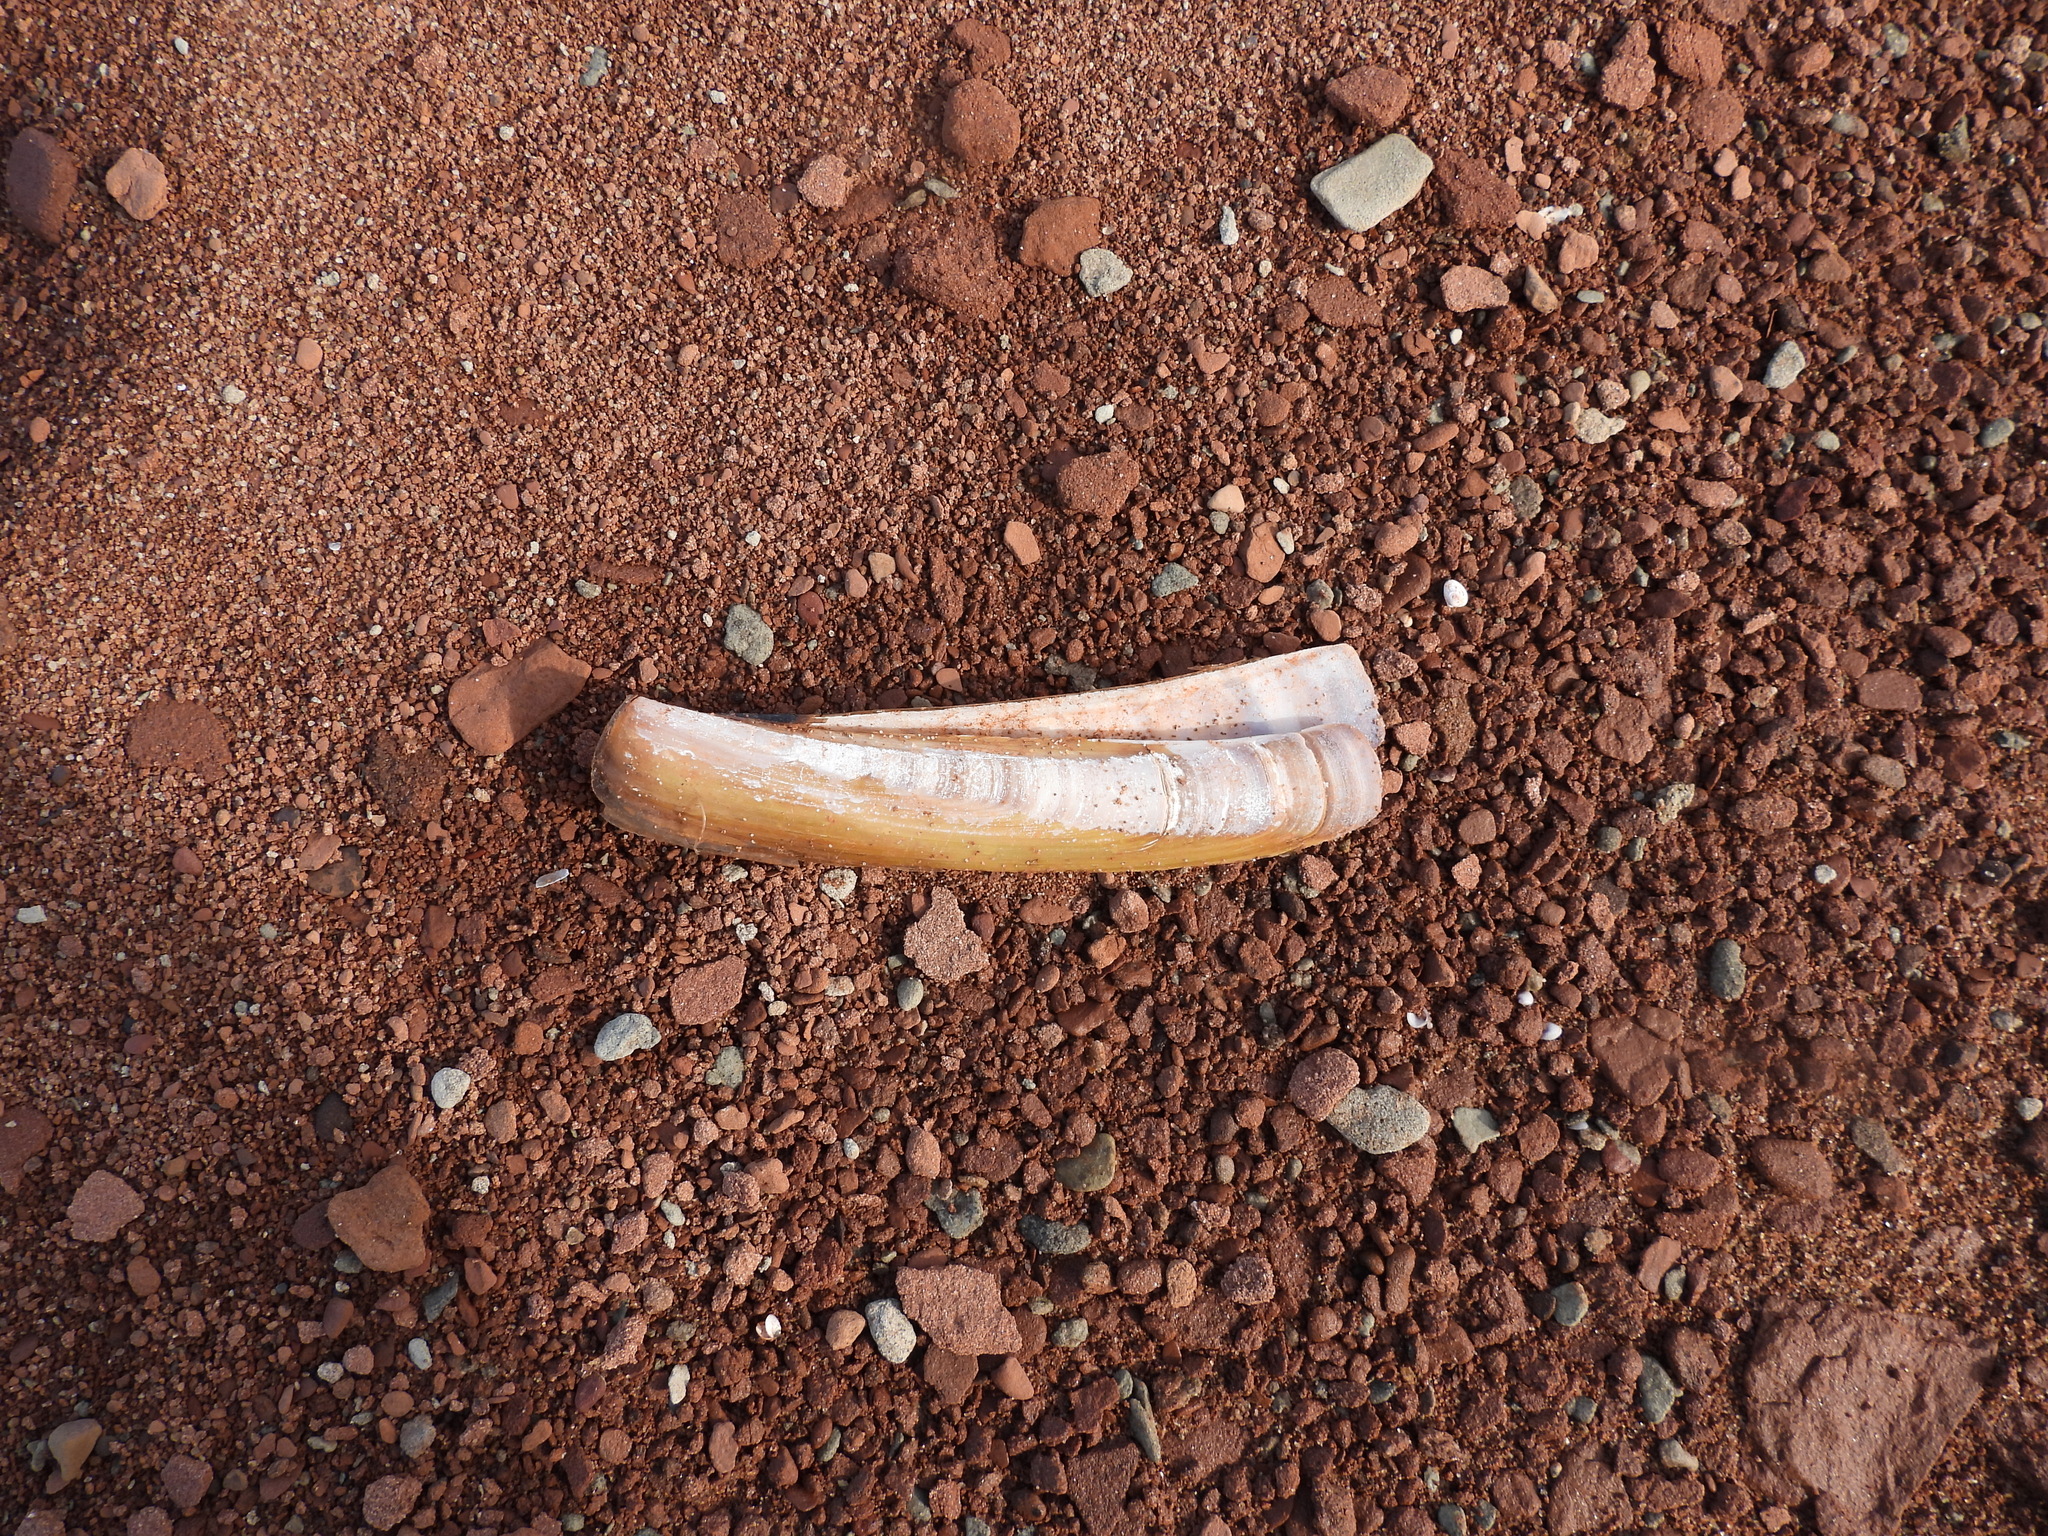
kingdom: Animalia
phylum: Mollusca
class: Bivalvia
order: Adapedonta
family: Pharidae
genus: Ensis
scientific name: Ensis leei
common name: American jack knife clam
